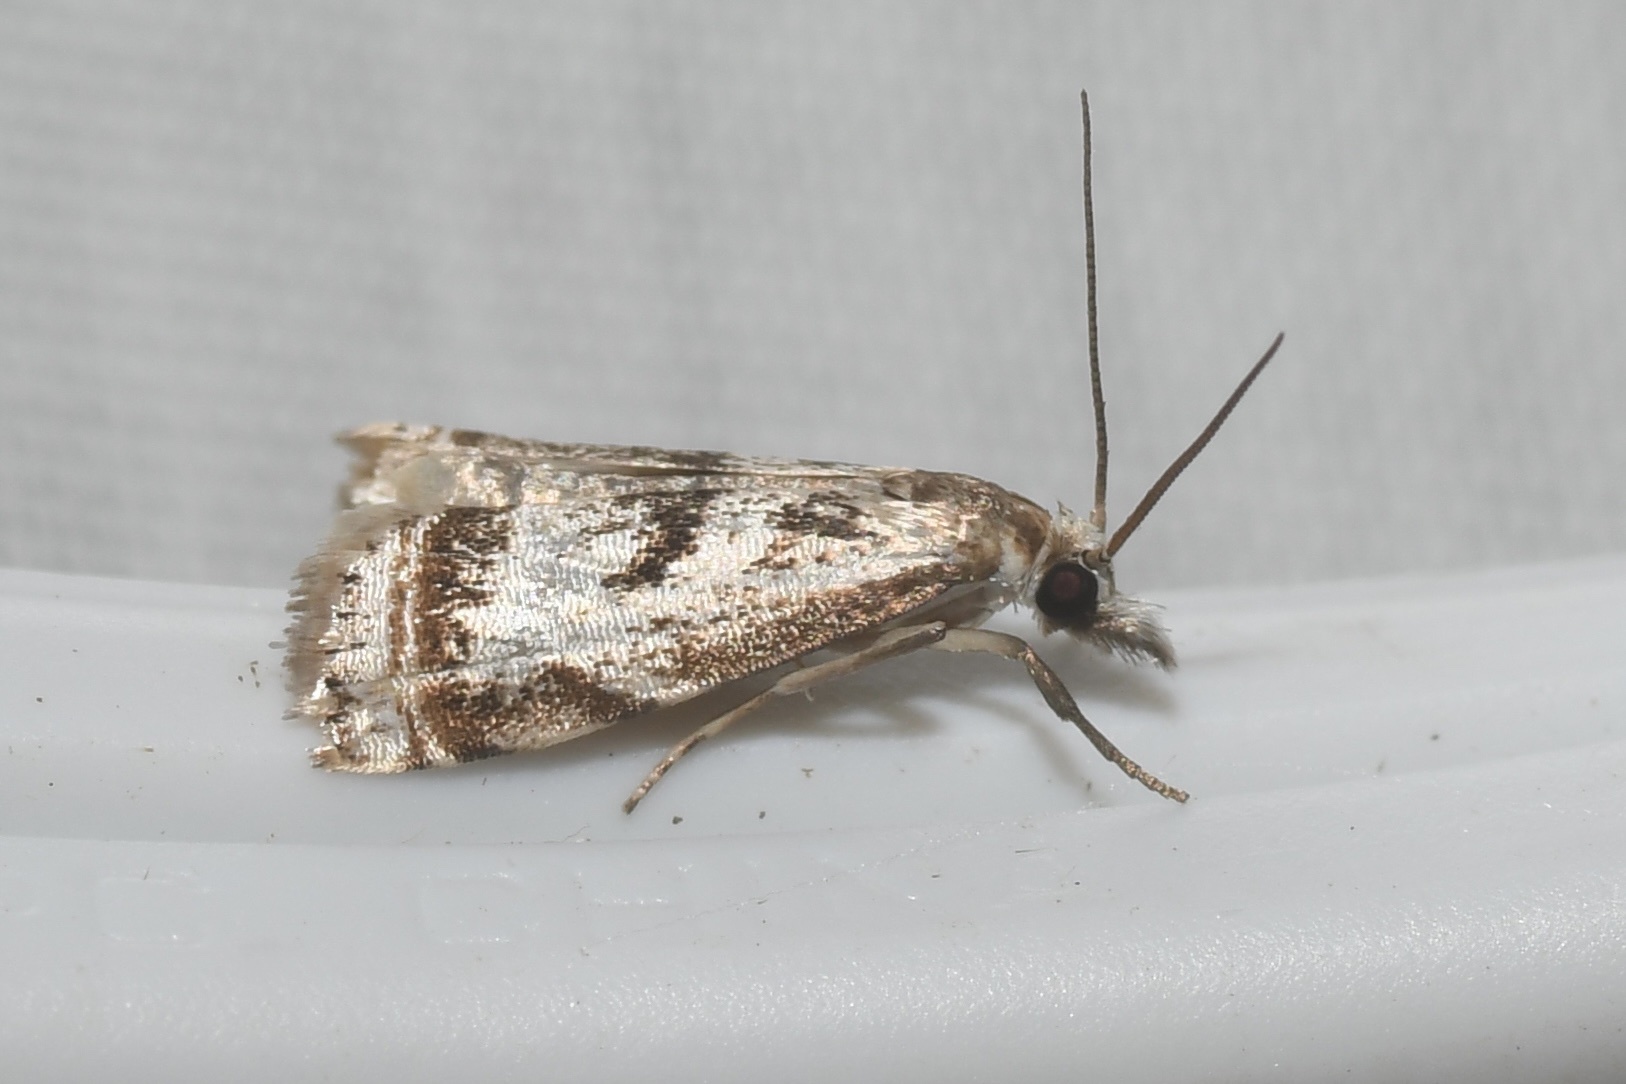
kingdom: Animalia
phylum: Arthropoda
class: Insecta
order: Lepidoptera
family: Crambidae
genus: Microcrambus
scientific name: Microcrambus elegans
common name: Elegant grass-veneer
